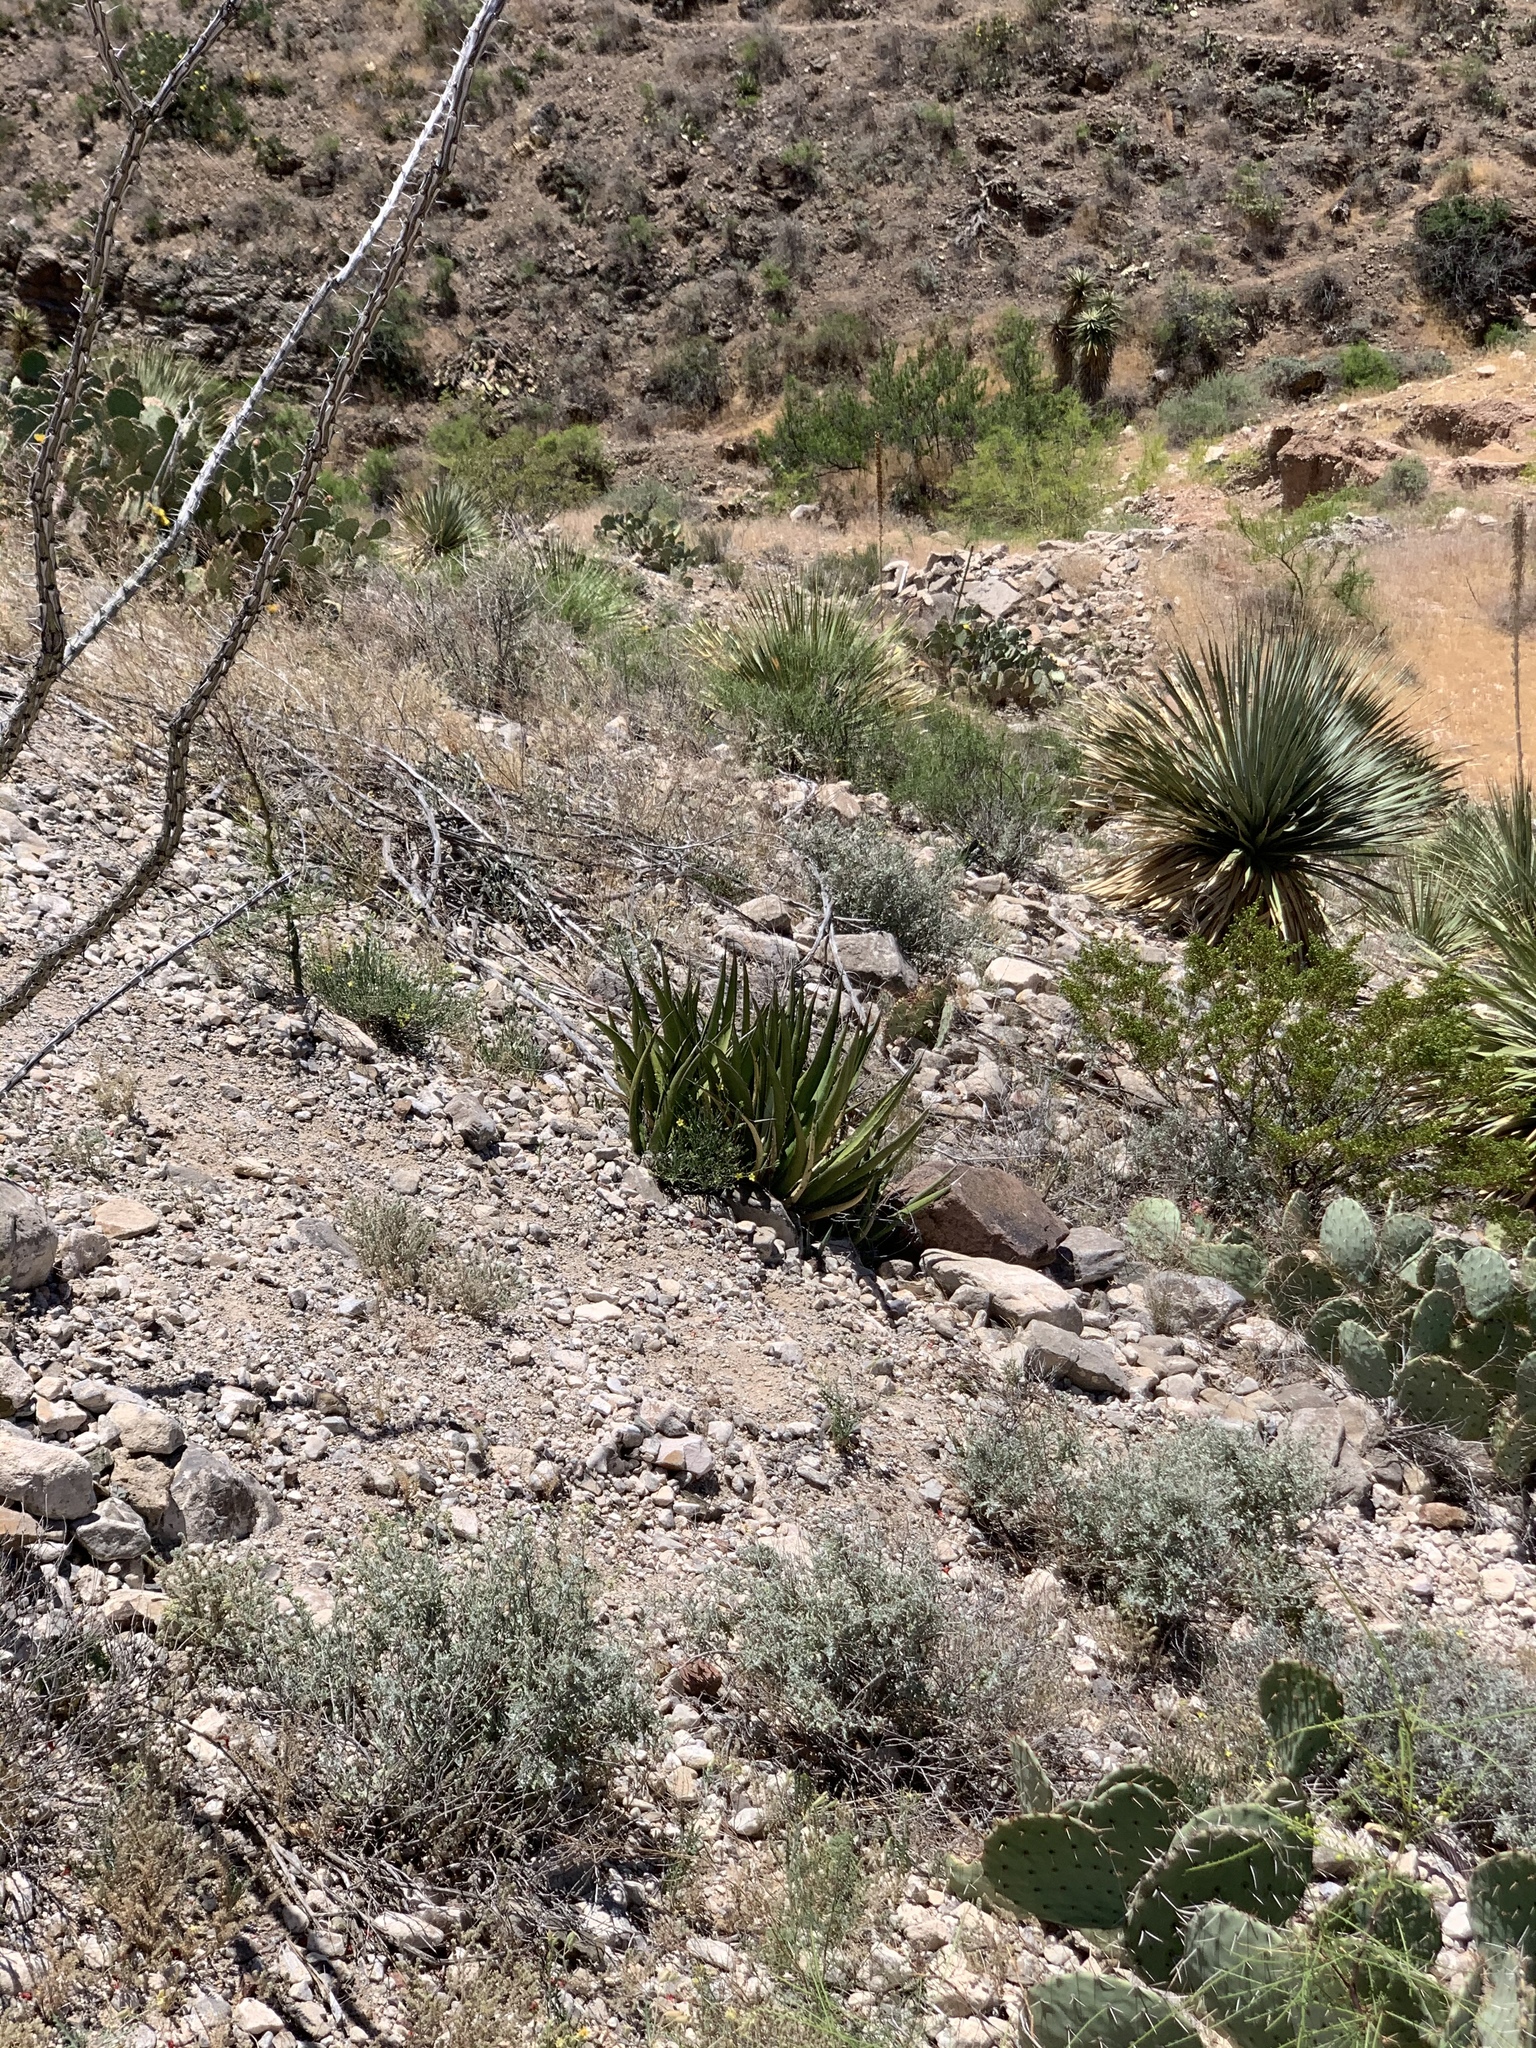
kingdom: Plantae
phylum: Tracheophyta
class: Liliopsida
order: Asparagales
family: Asparagaceae
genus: Agave
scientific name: Agave lechuguilla
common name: Lecheguilla agave
